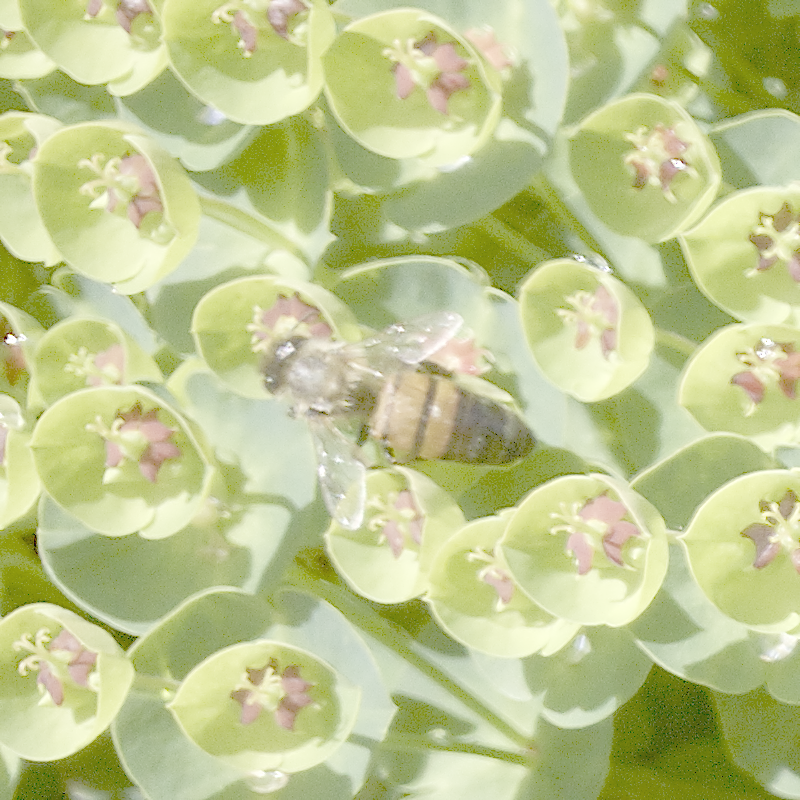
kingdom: Animalia
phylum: Arthropoda
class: Insecta
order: Hymenoptera
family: Apidae
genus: Apis
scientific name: Apis mellifera
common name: Honey bee
